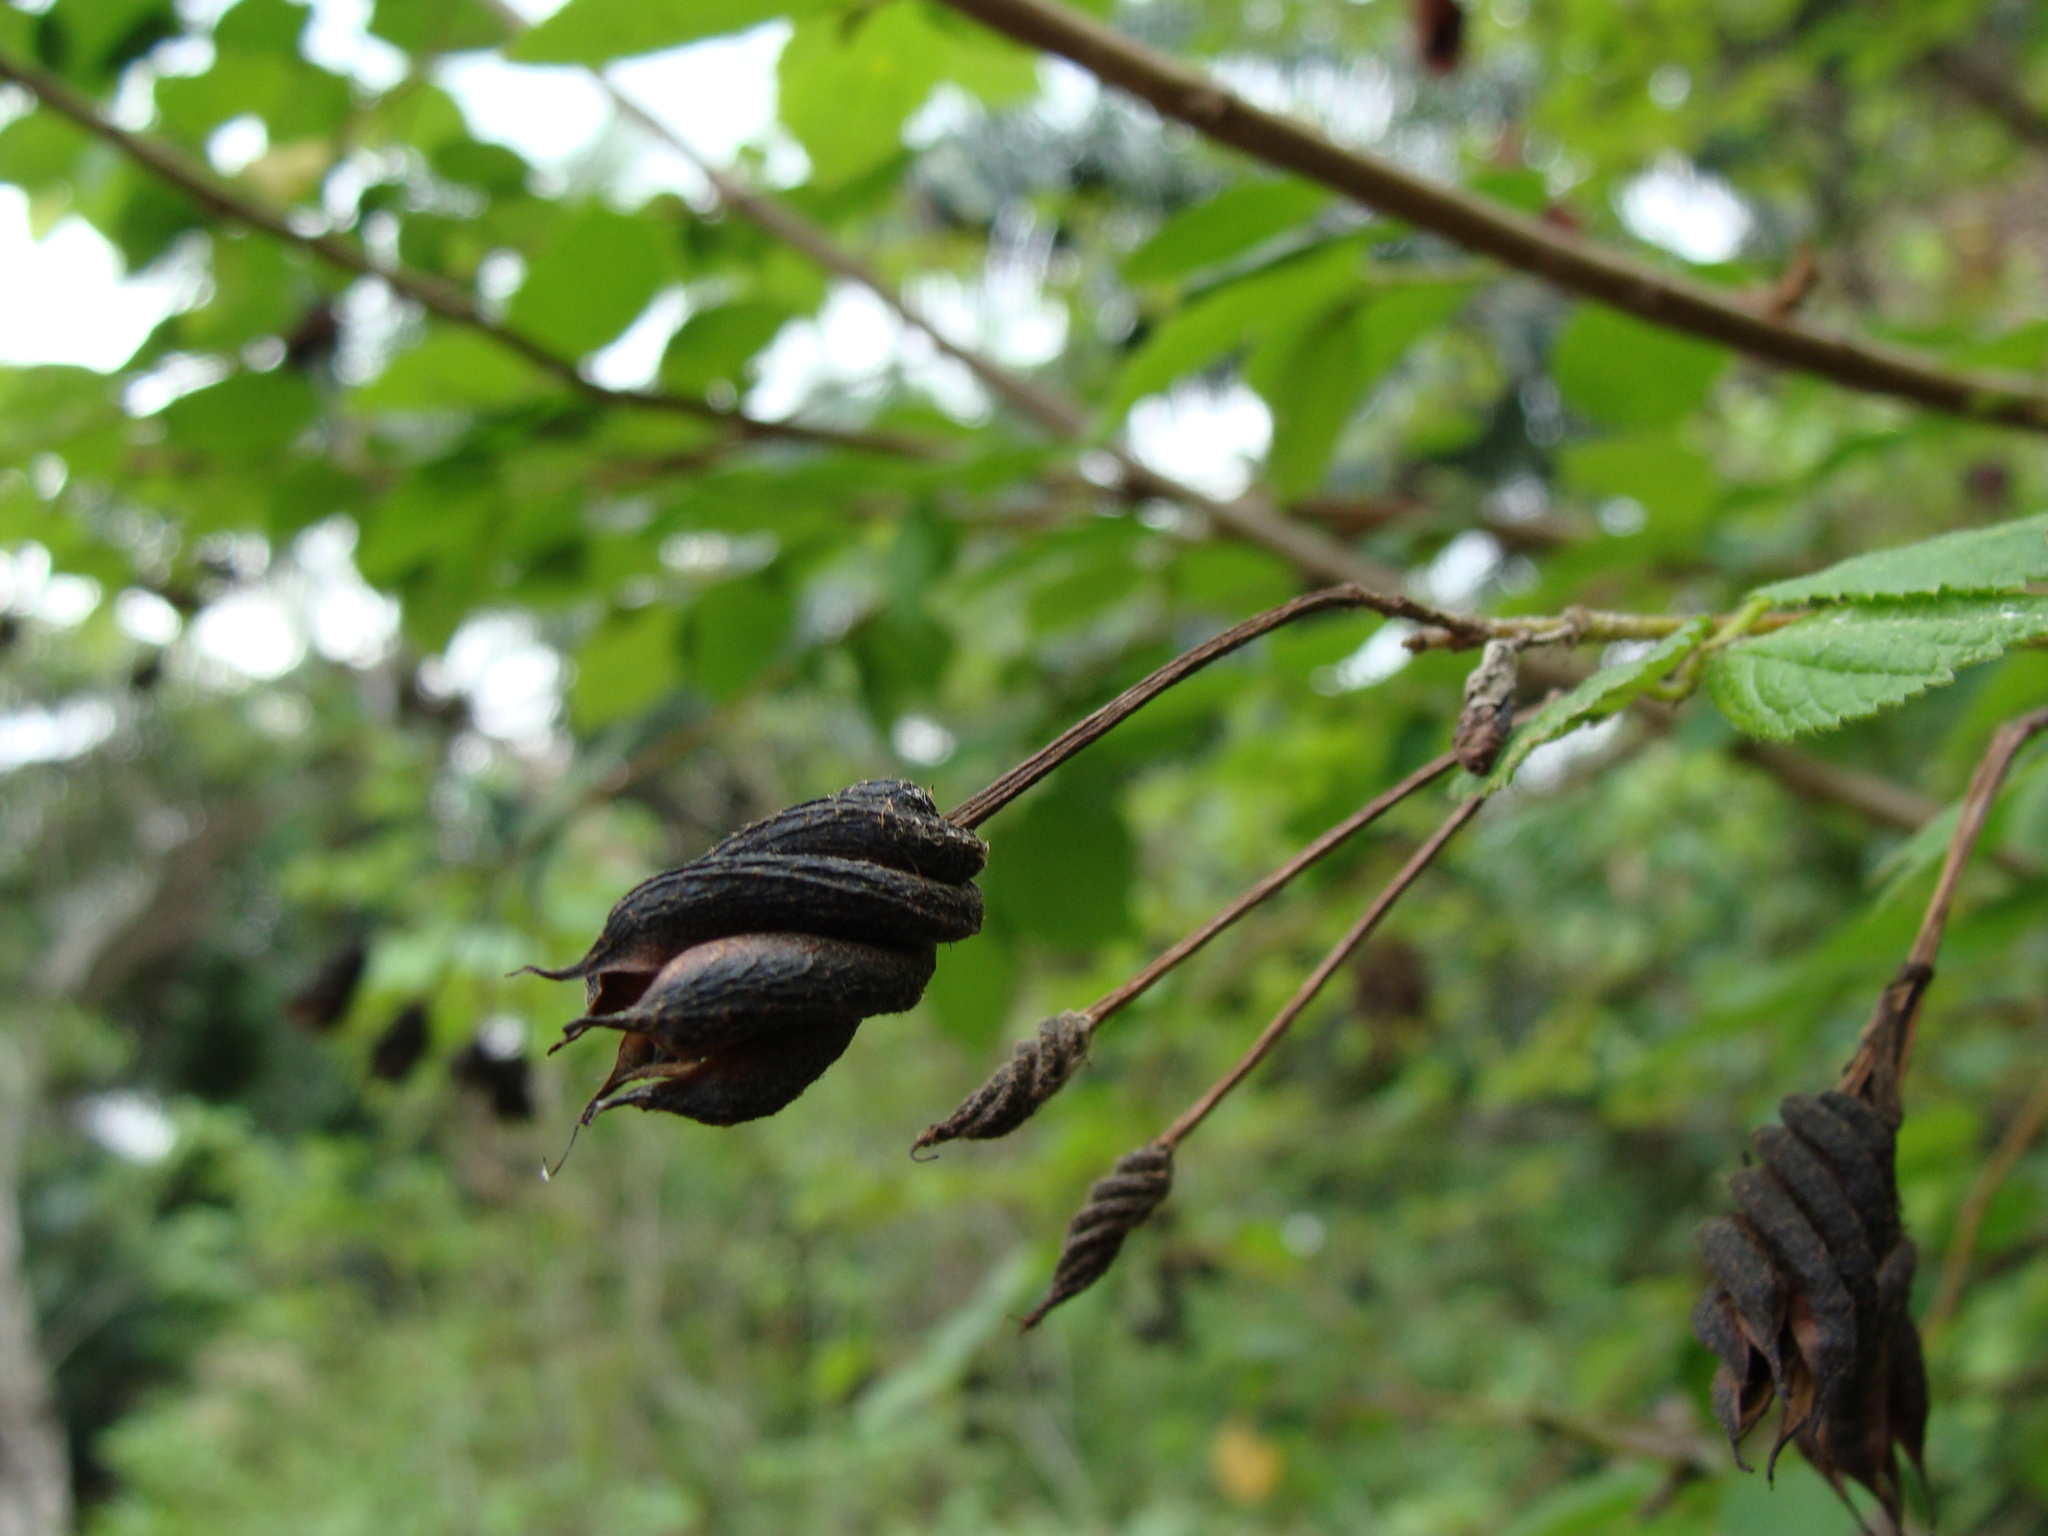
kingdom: Plantae
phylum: Tracheophyta
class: Magnoliopsida
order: Malvales
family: Malvaceae
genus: Helicteres
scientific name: Helicteres guazumifolia
